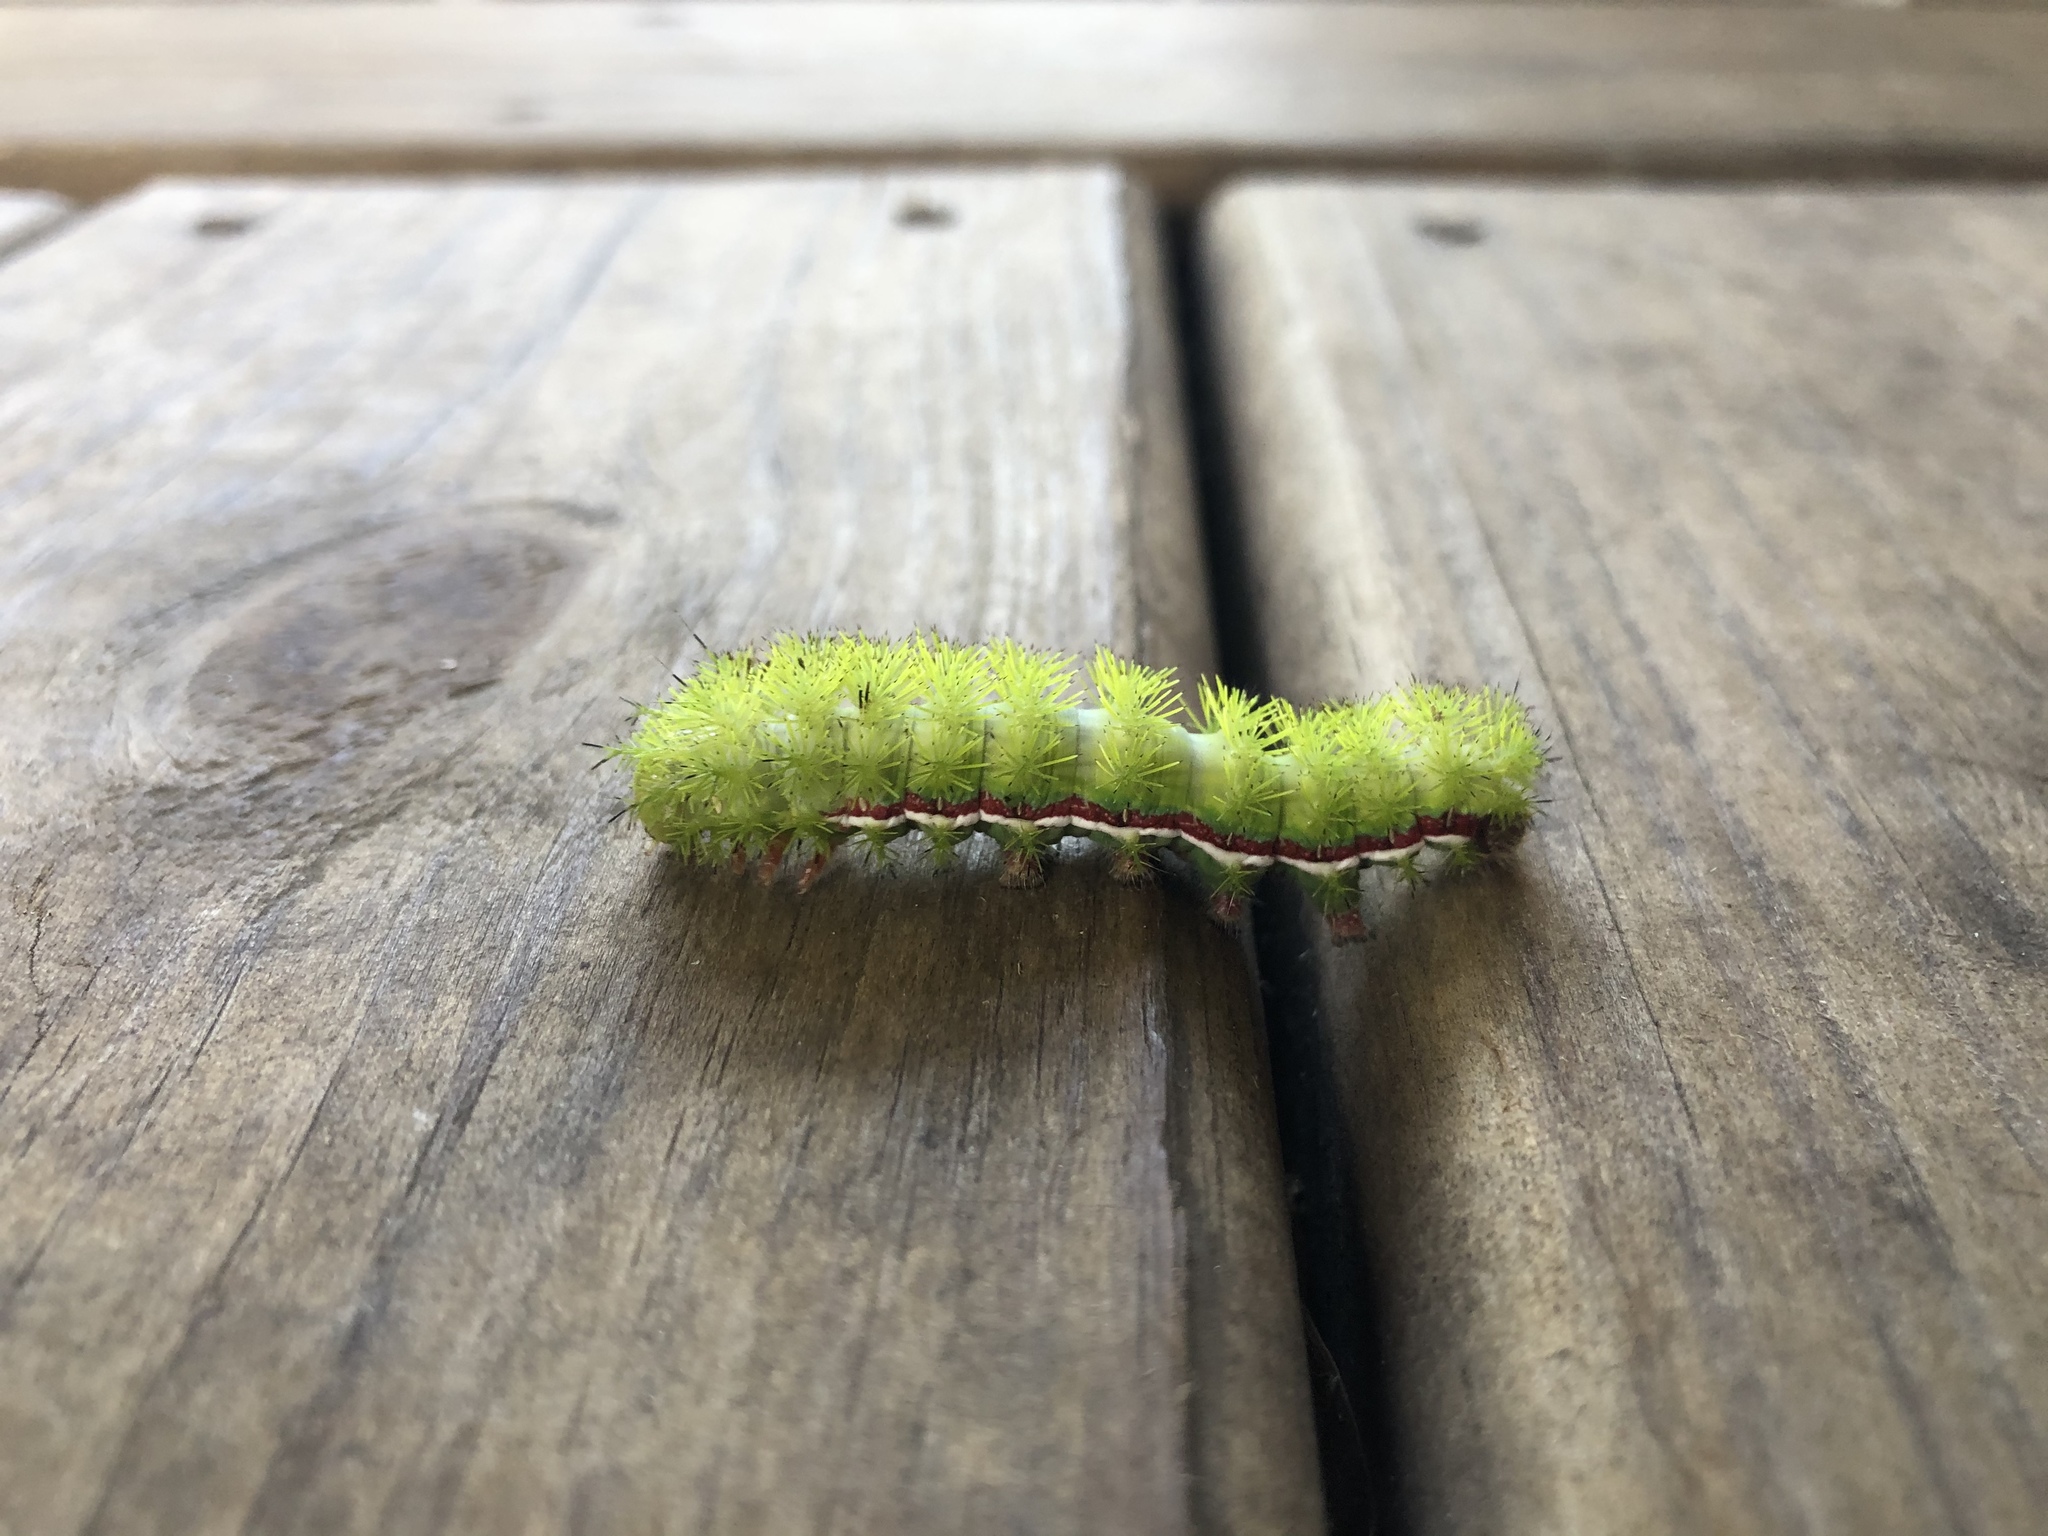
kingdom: Animalia
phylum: Arthropoda
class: Insecta
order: Lepidoptera
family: Saturniidae
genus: Automeris
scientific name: Automeris io
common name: Io moth
